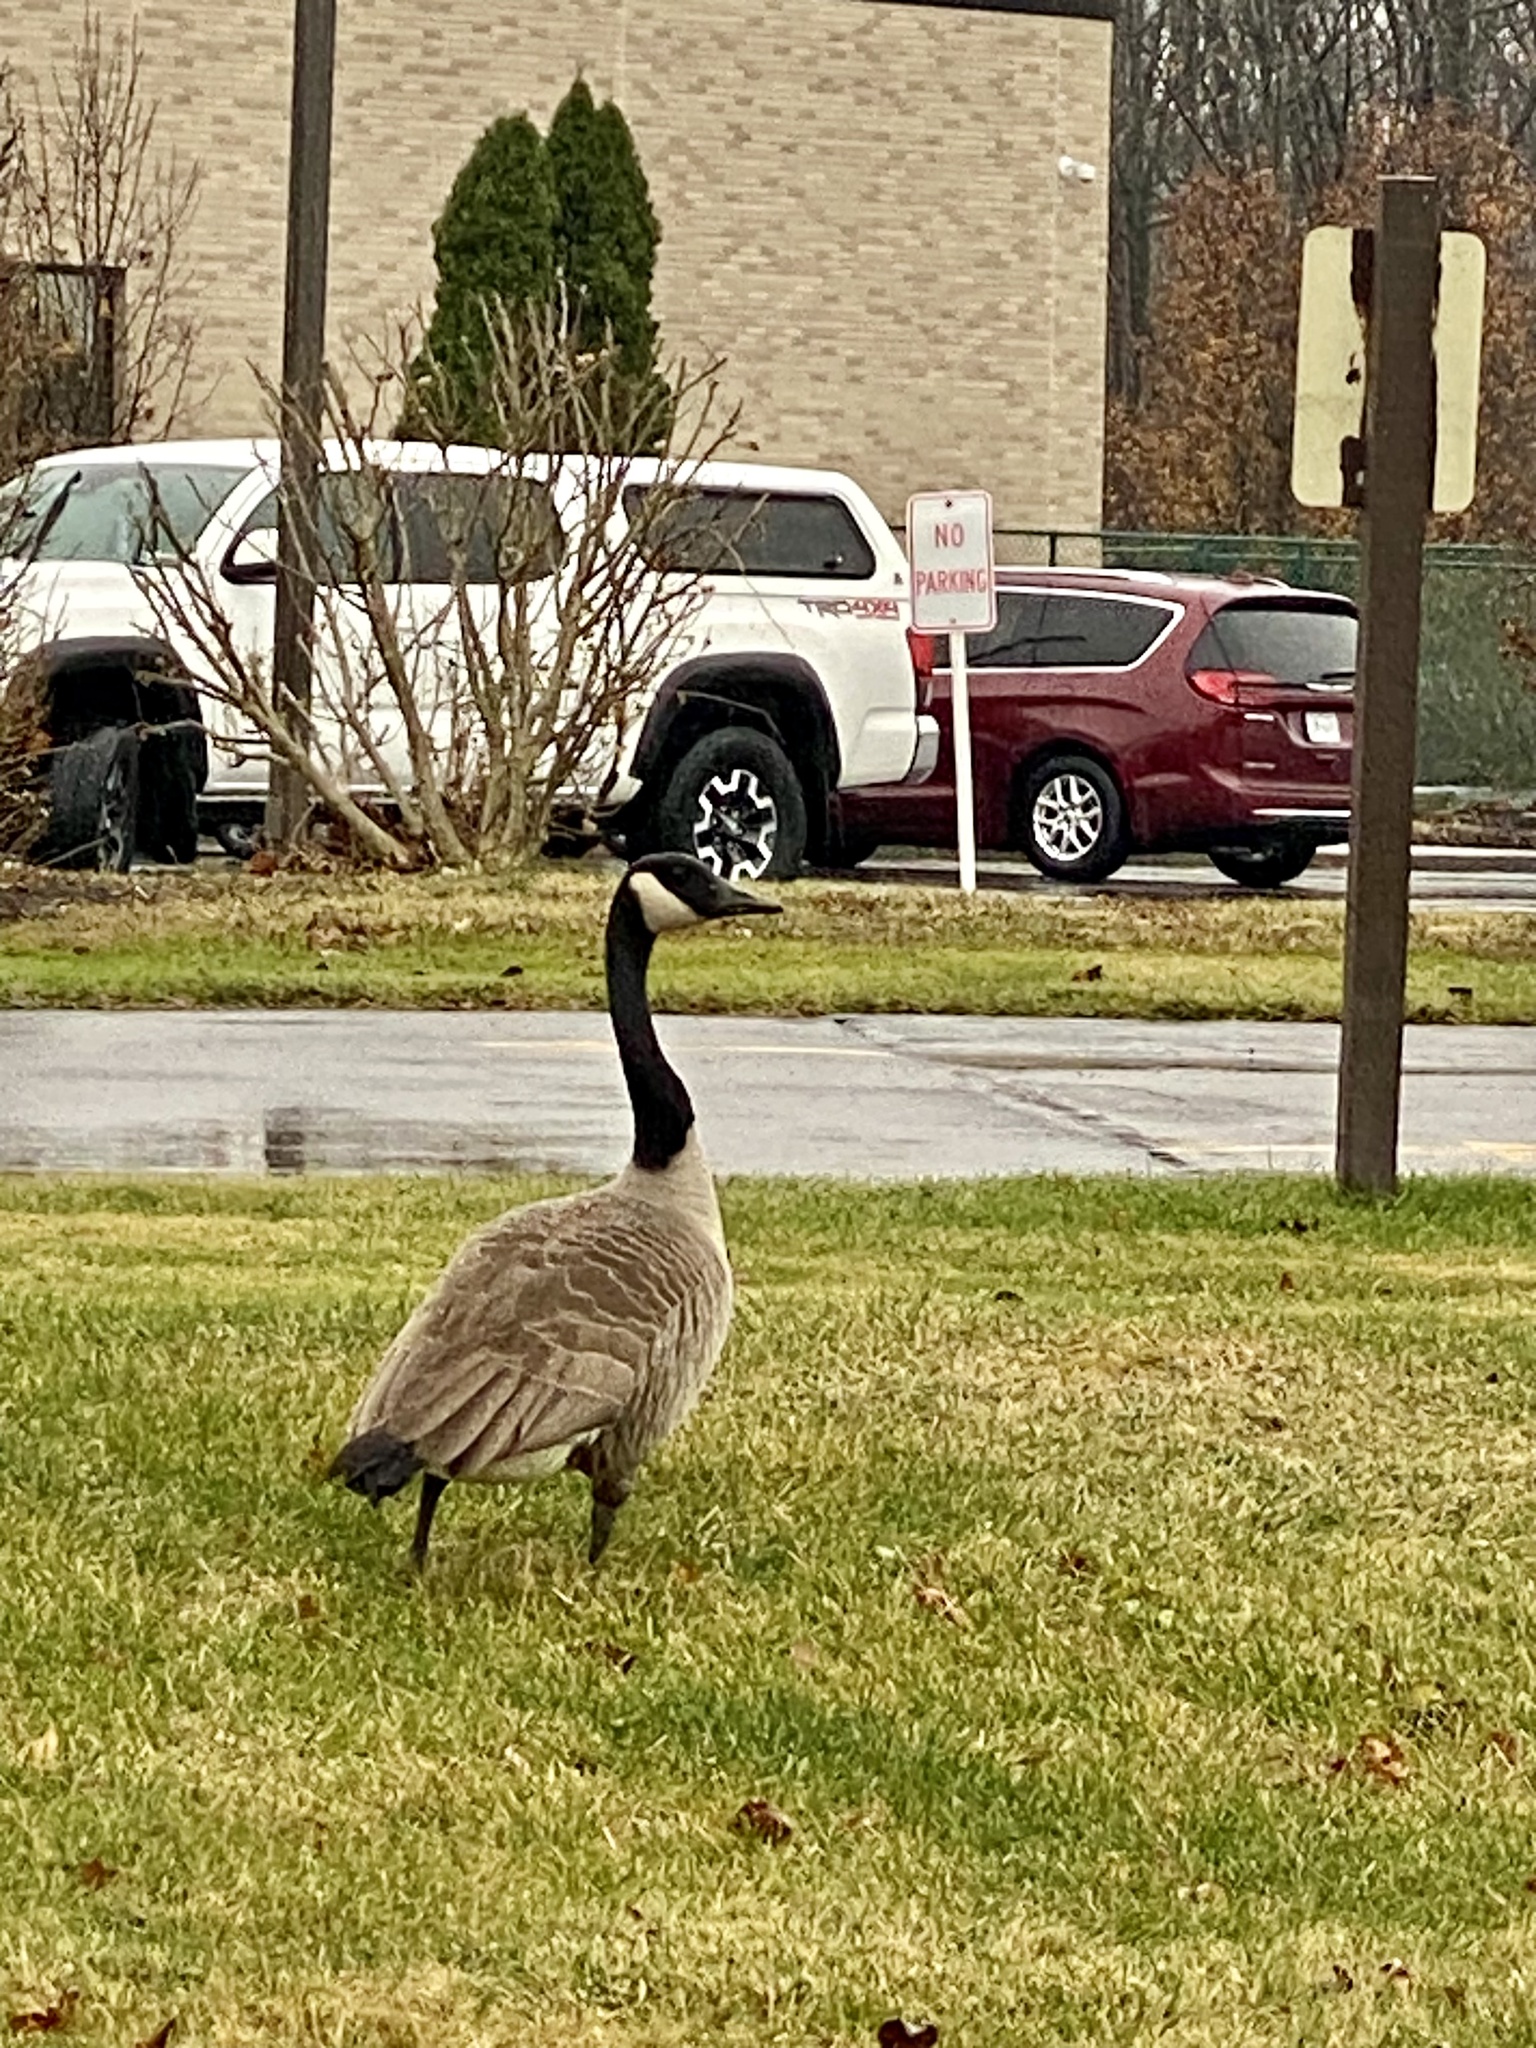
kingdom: Animalia
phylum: Chordata
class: Aves
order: Anseriformes
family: Anatidae
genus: Branta
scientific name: Branta canadensis
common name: Canada goose
